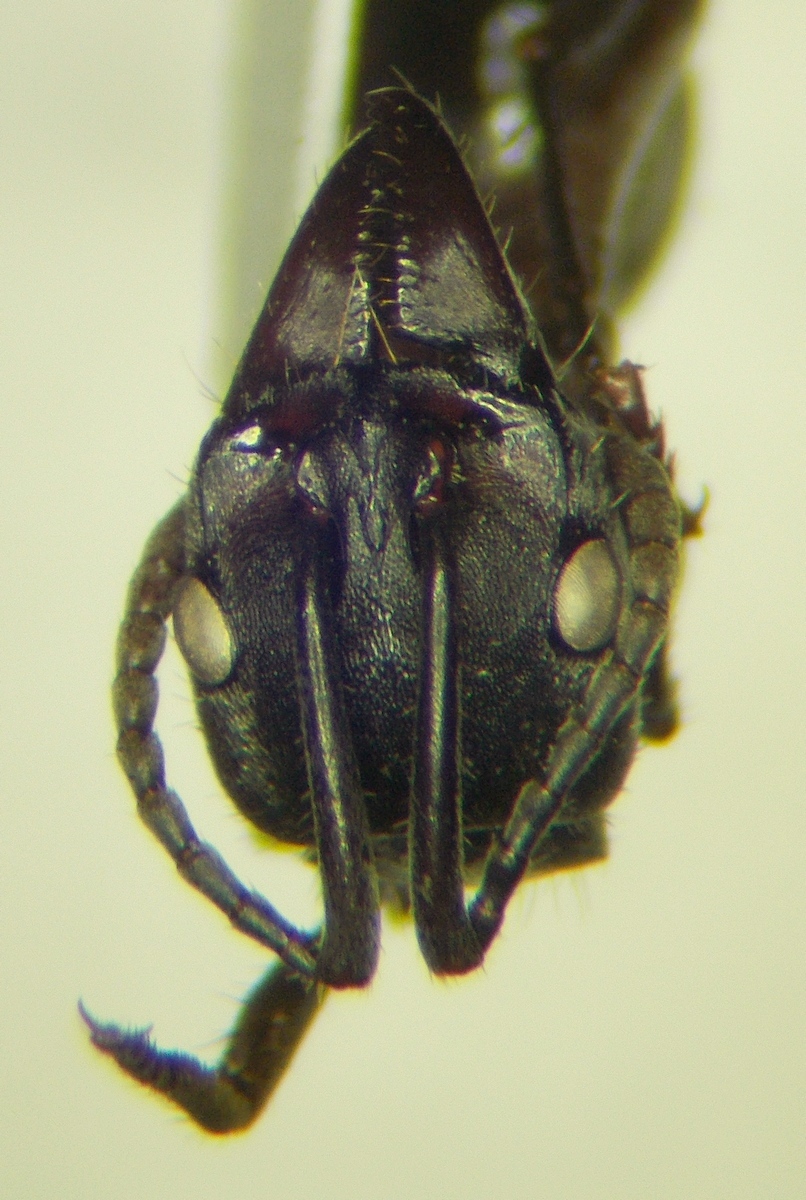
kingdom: Animalia
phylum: Arthropoda
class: Insecta
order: Hymenoptera
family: Formicidae
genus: Pachycondyla
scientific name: Pachycondyla villosa
